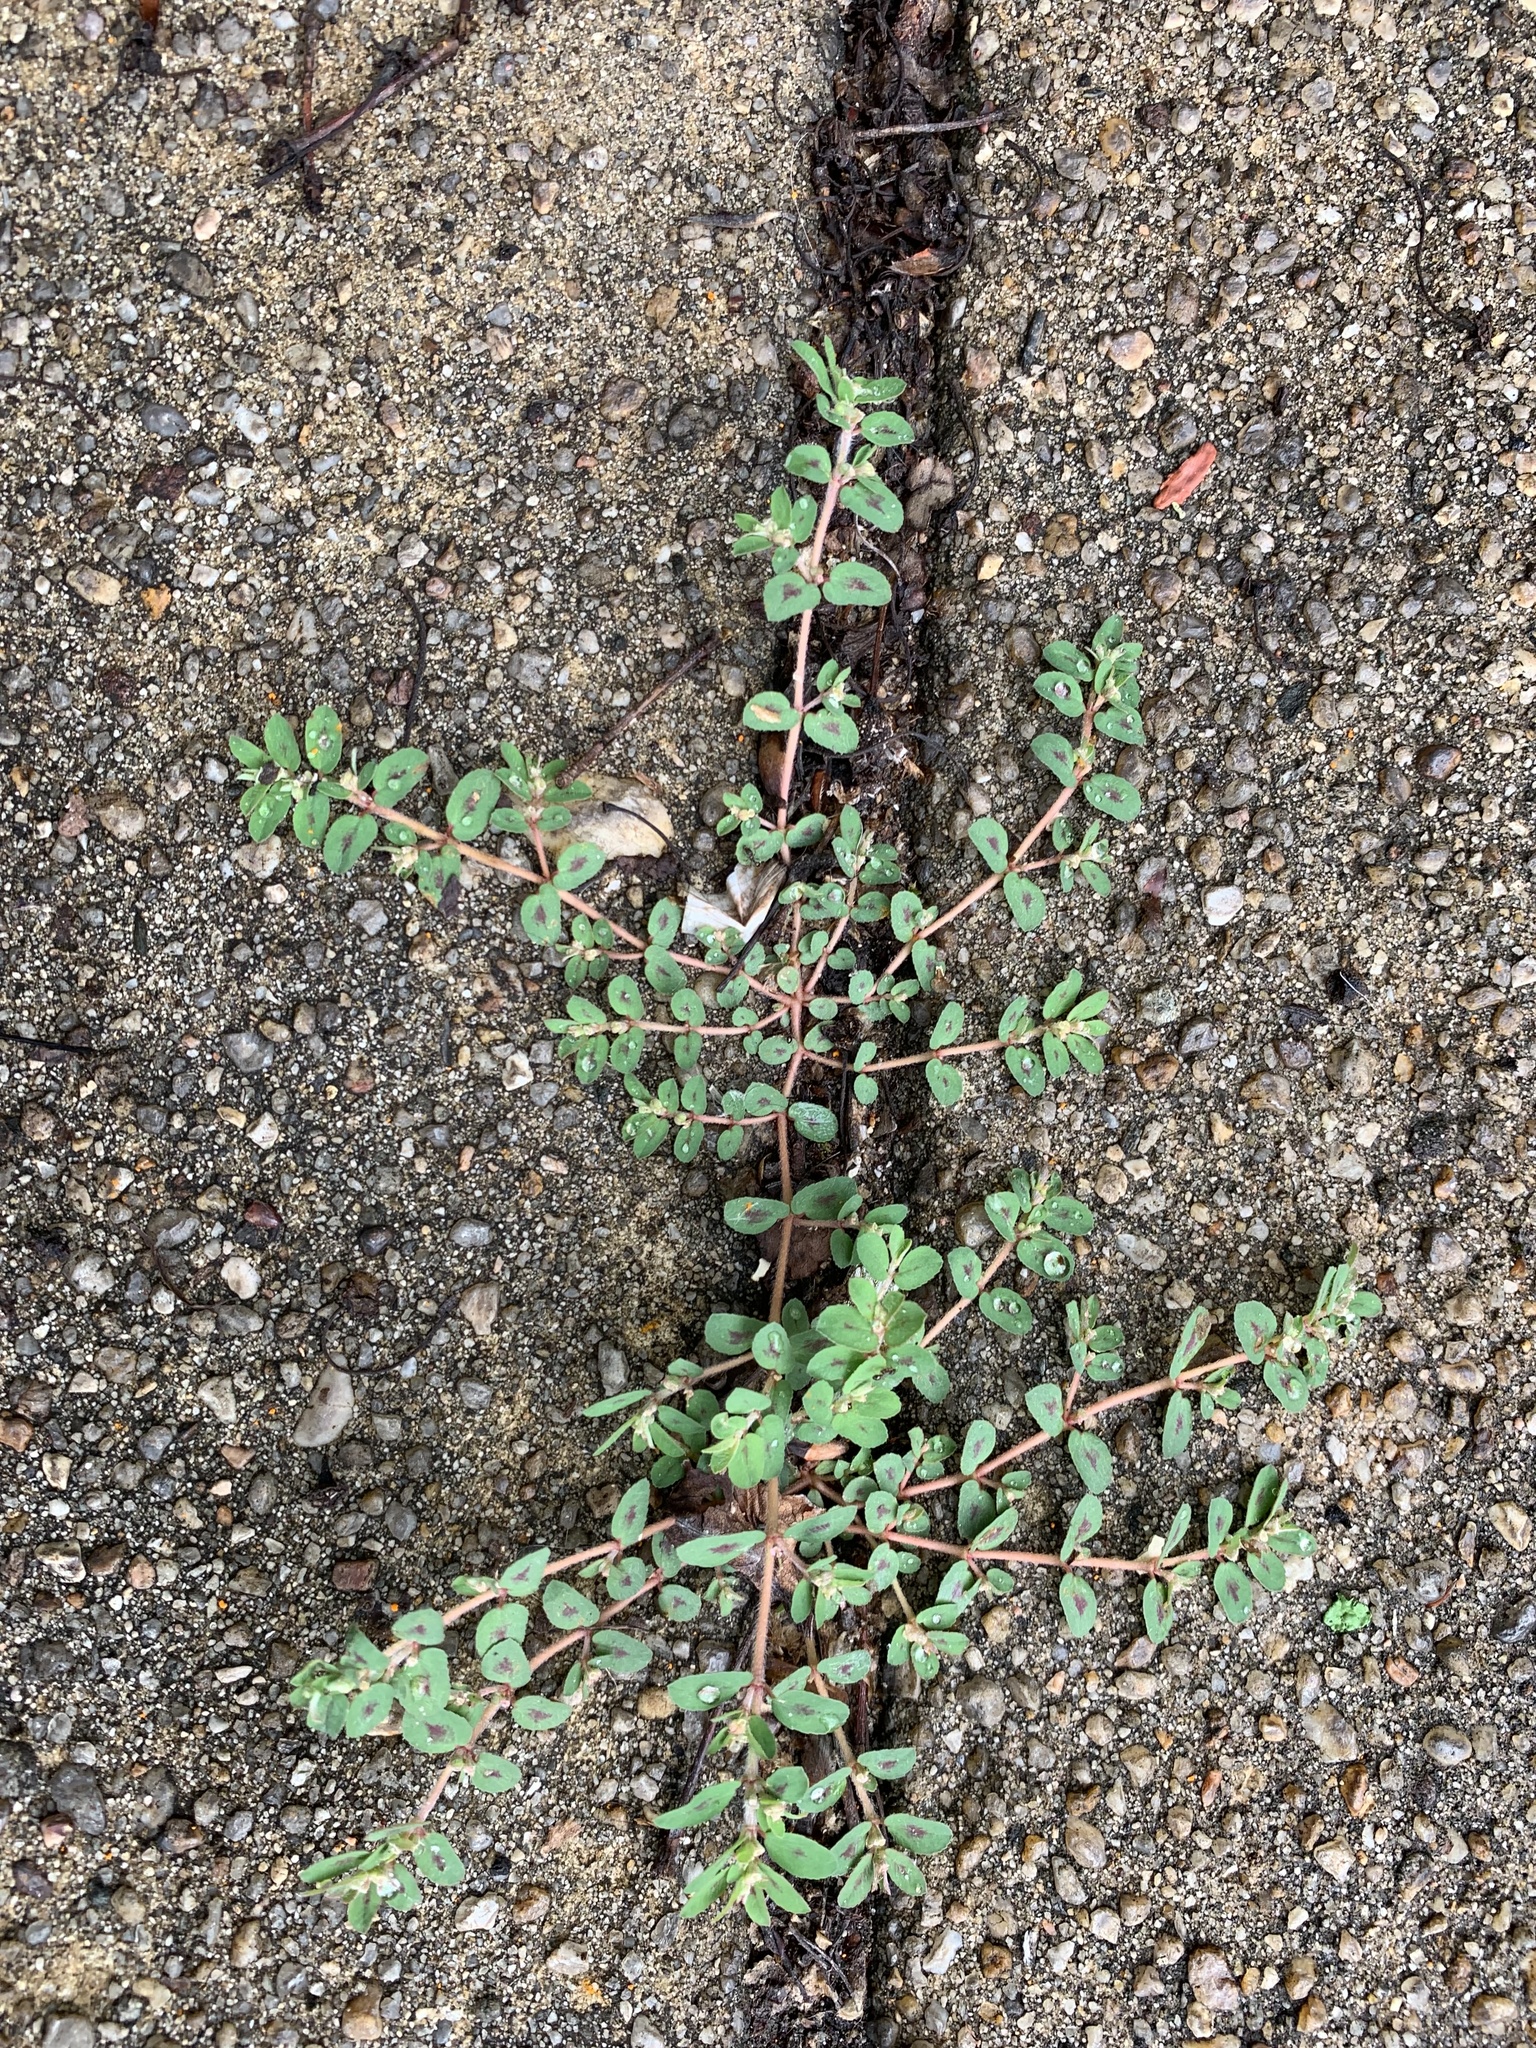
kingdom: Plantae
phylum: Tracheophyta
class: Magnoliopsida
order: Malpighiales
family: Euphorbiaceae
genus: Euphorbia
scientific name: Euphorbia maculata
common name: Spotted spurge
